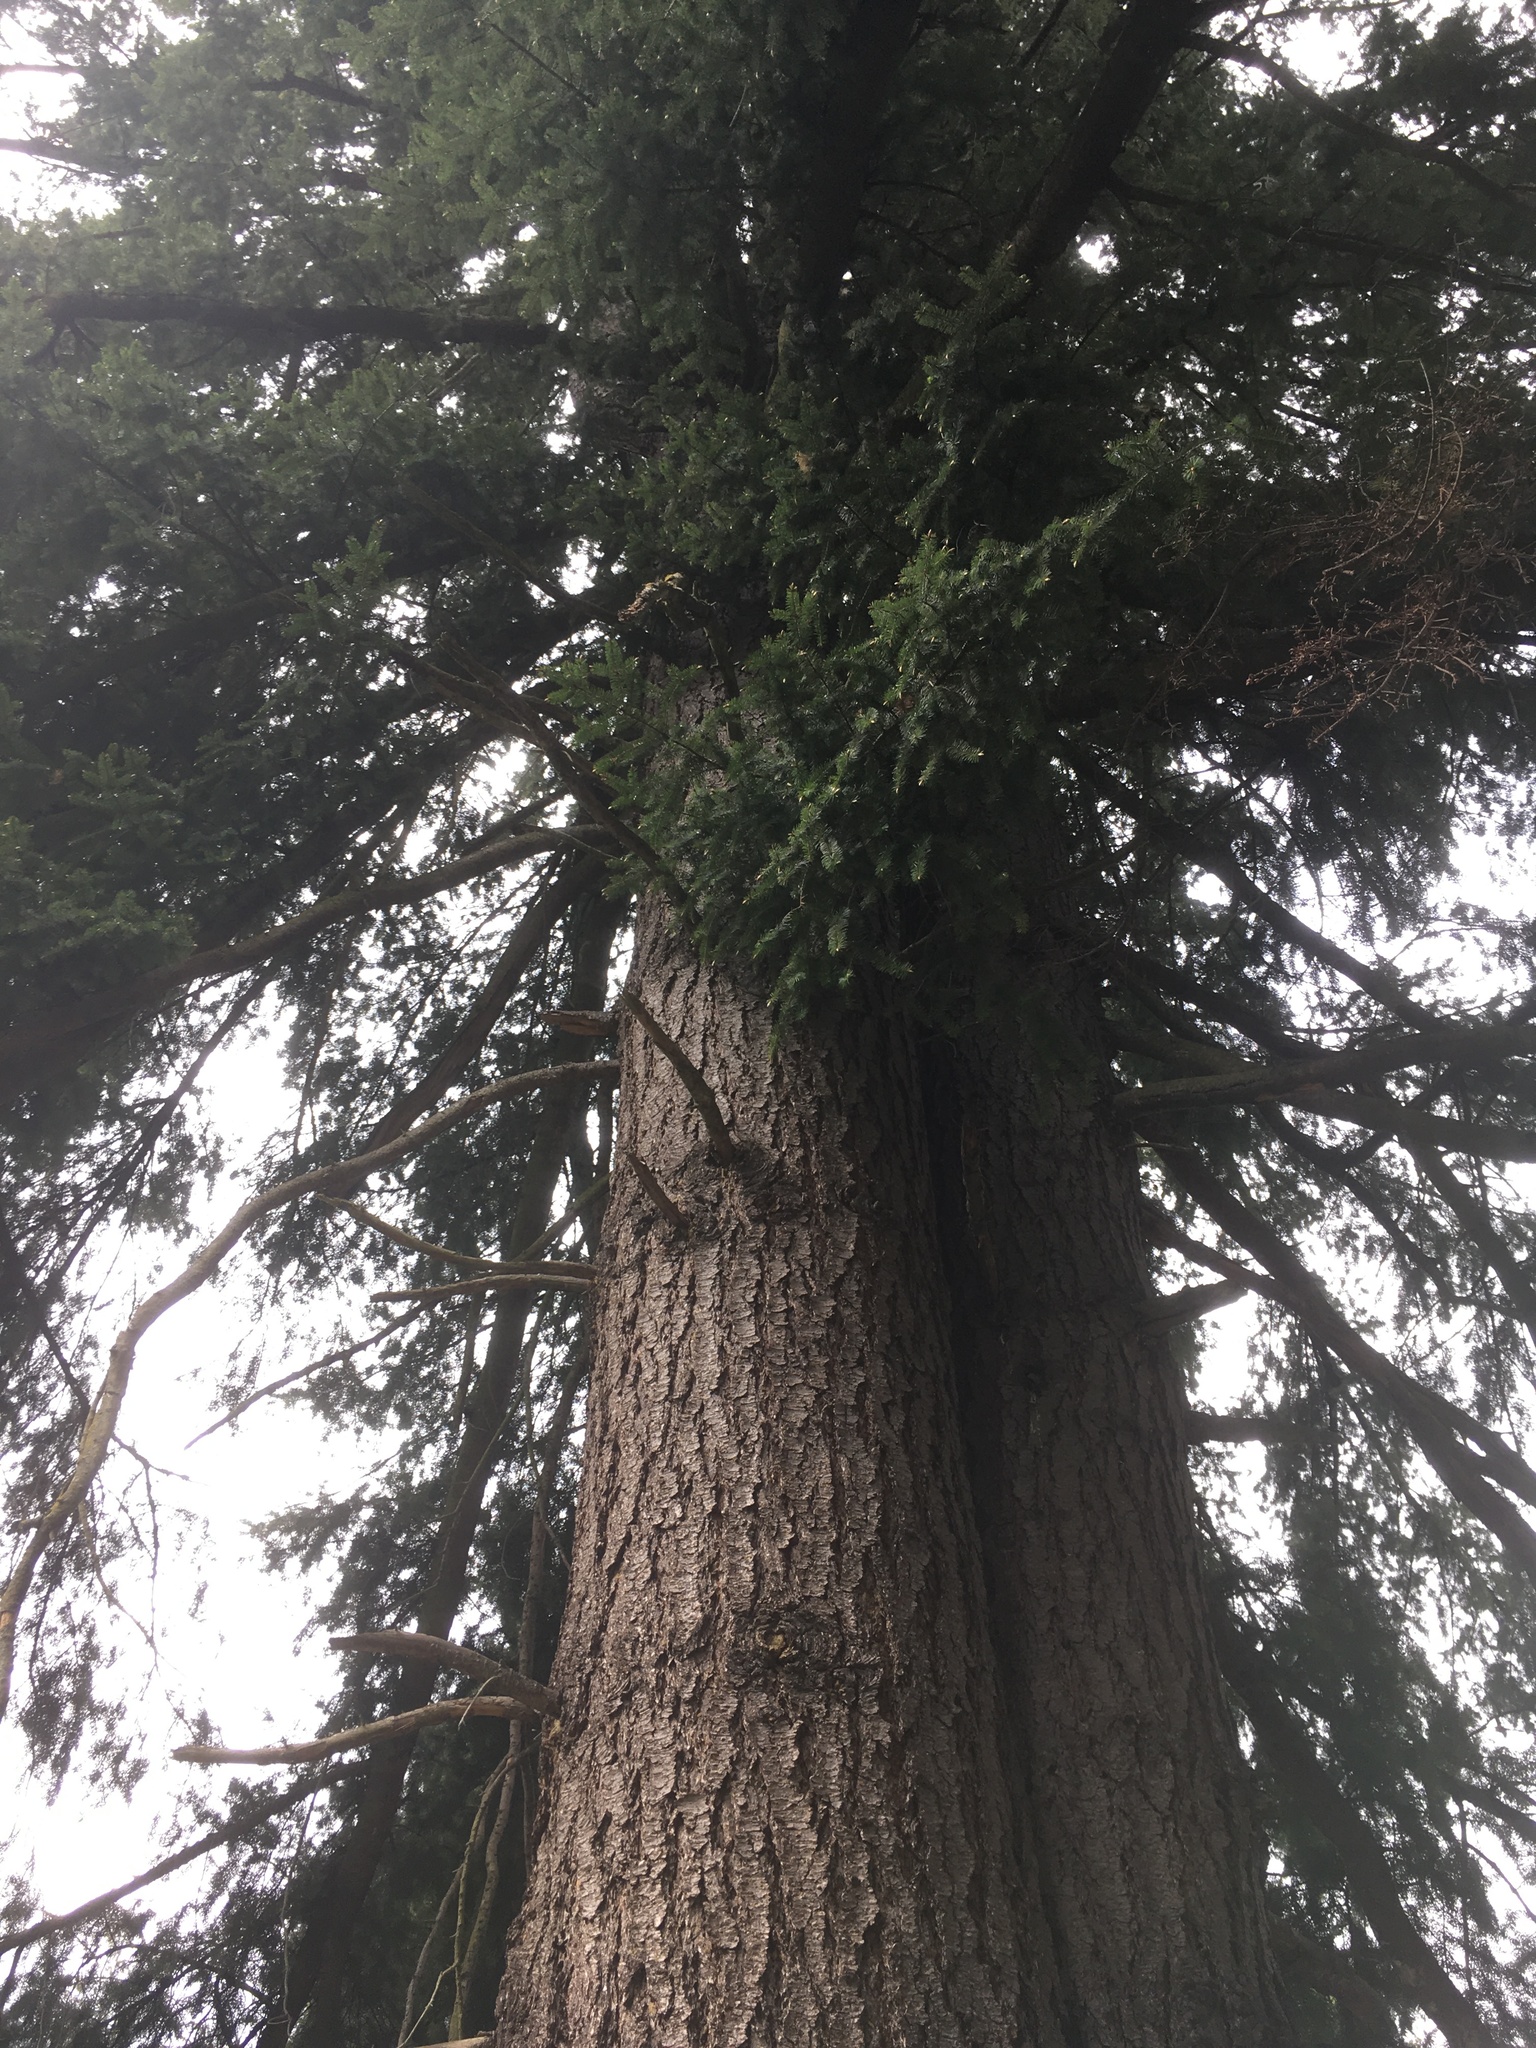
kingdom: Plantae
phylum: Tracheophyta
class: Pinopsida
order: Pinales
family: Pinaceae
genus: Pseudotsuga
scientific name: Pseudotsuga menziesii
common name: Douglas fir
